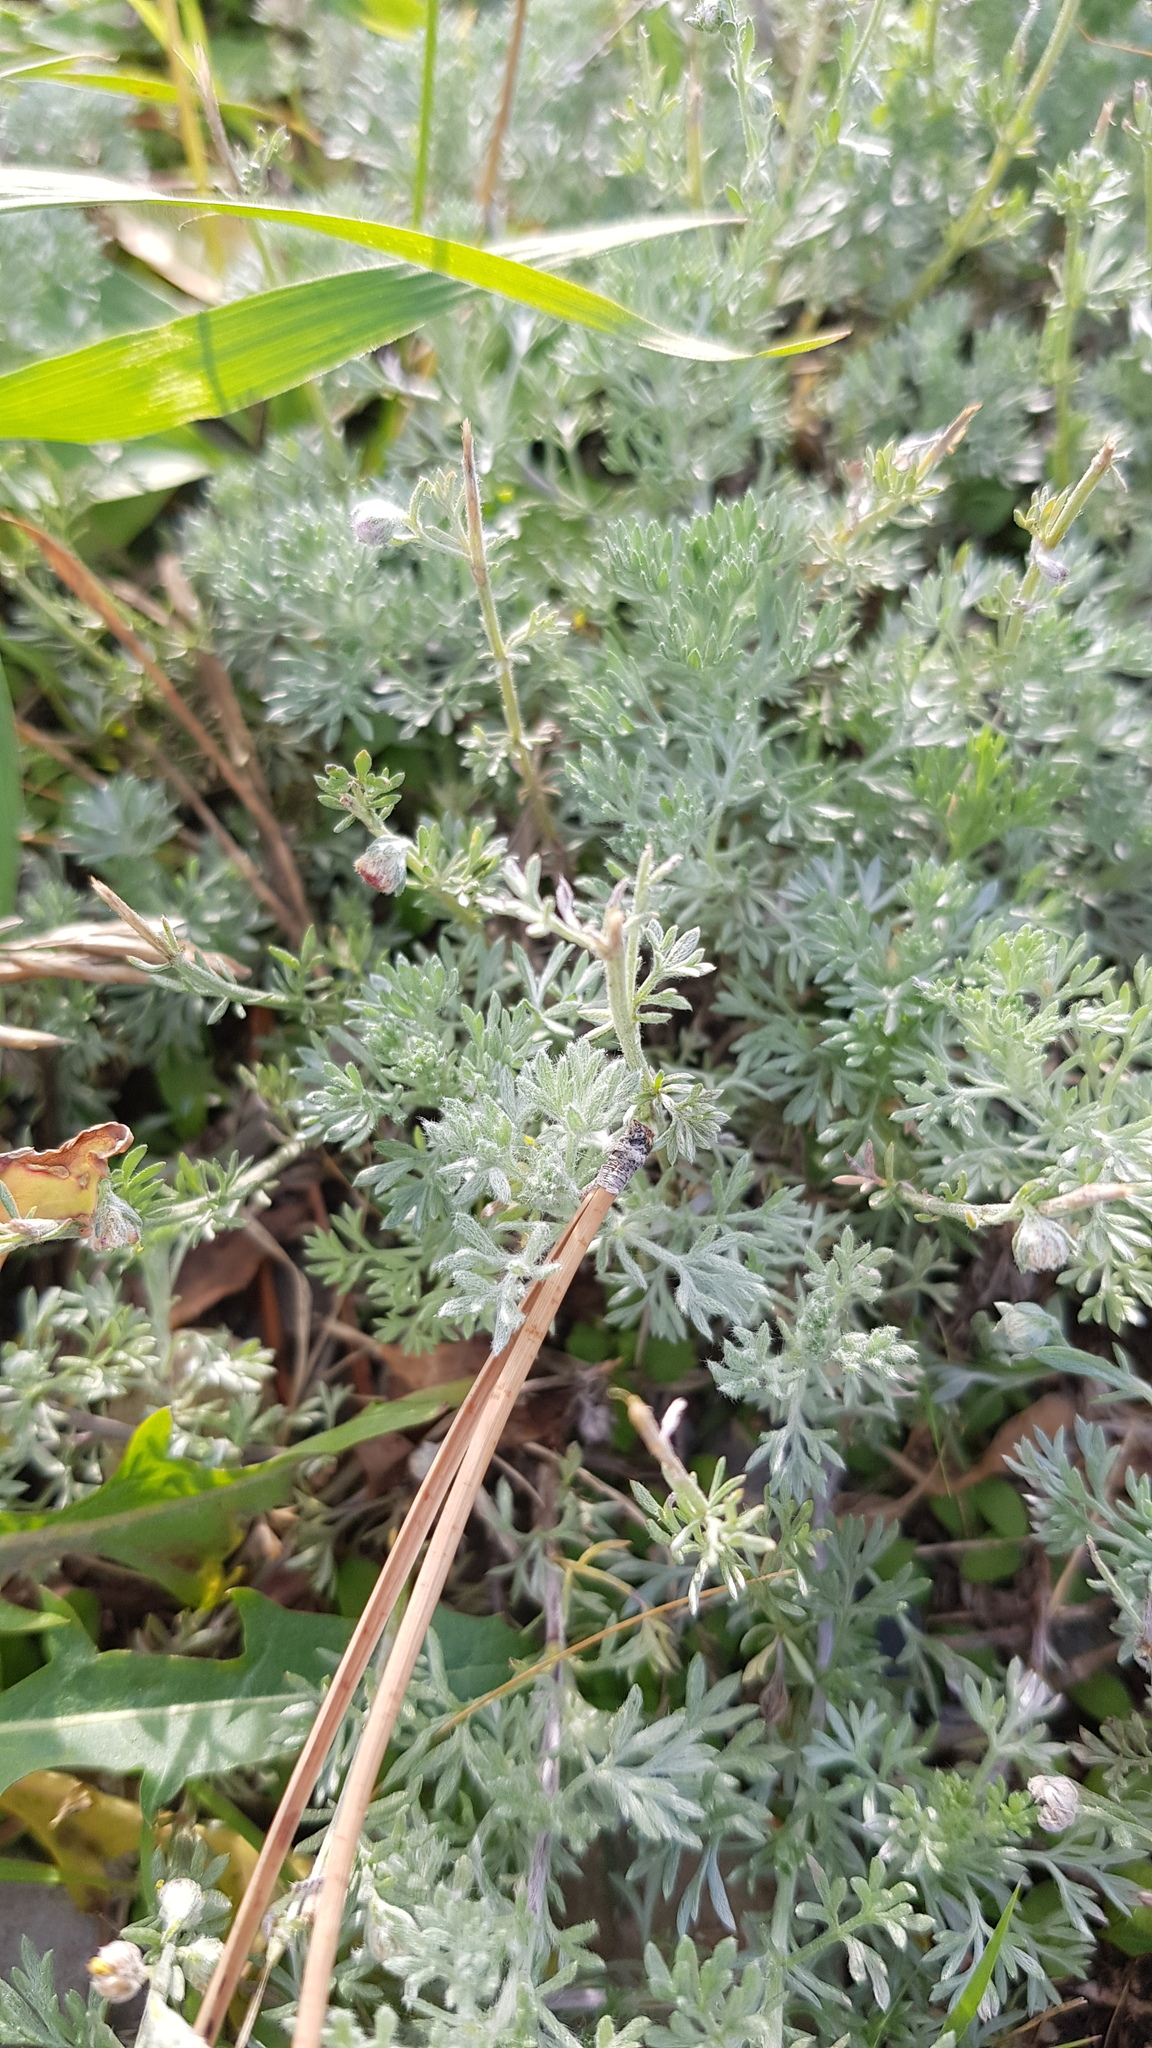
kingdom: Plantae
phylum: Tracheophyta
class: Magnoliopsida
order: Asterales
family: Asteraceae
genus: Artemisia
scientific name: Artemisia frigida
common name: Prairie sagewort
